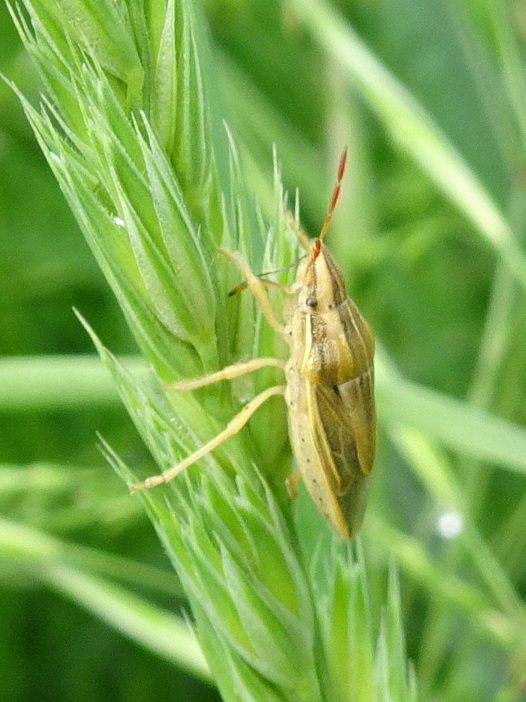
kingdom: Animalia
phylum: Arthropoda
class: Insecta
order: Hemiptera
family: Pentatomidae
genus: Aelia
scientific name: Aelia acuminata
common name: Bishop's mitre
